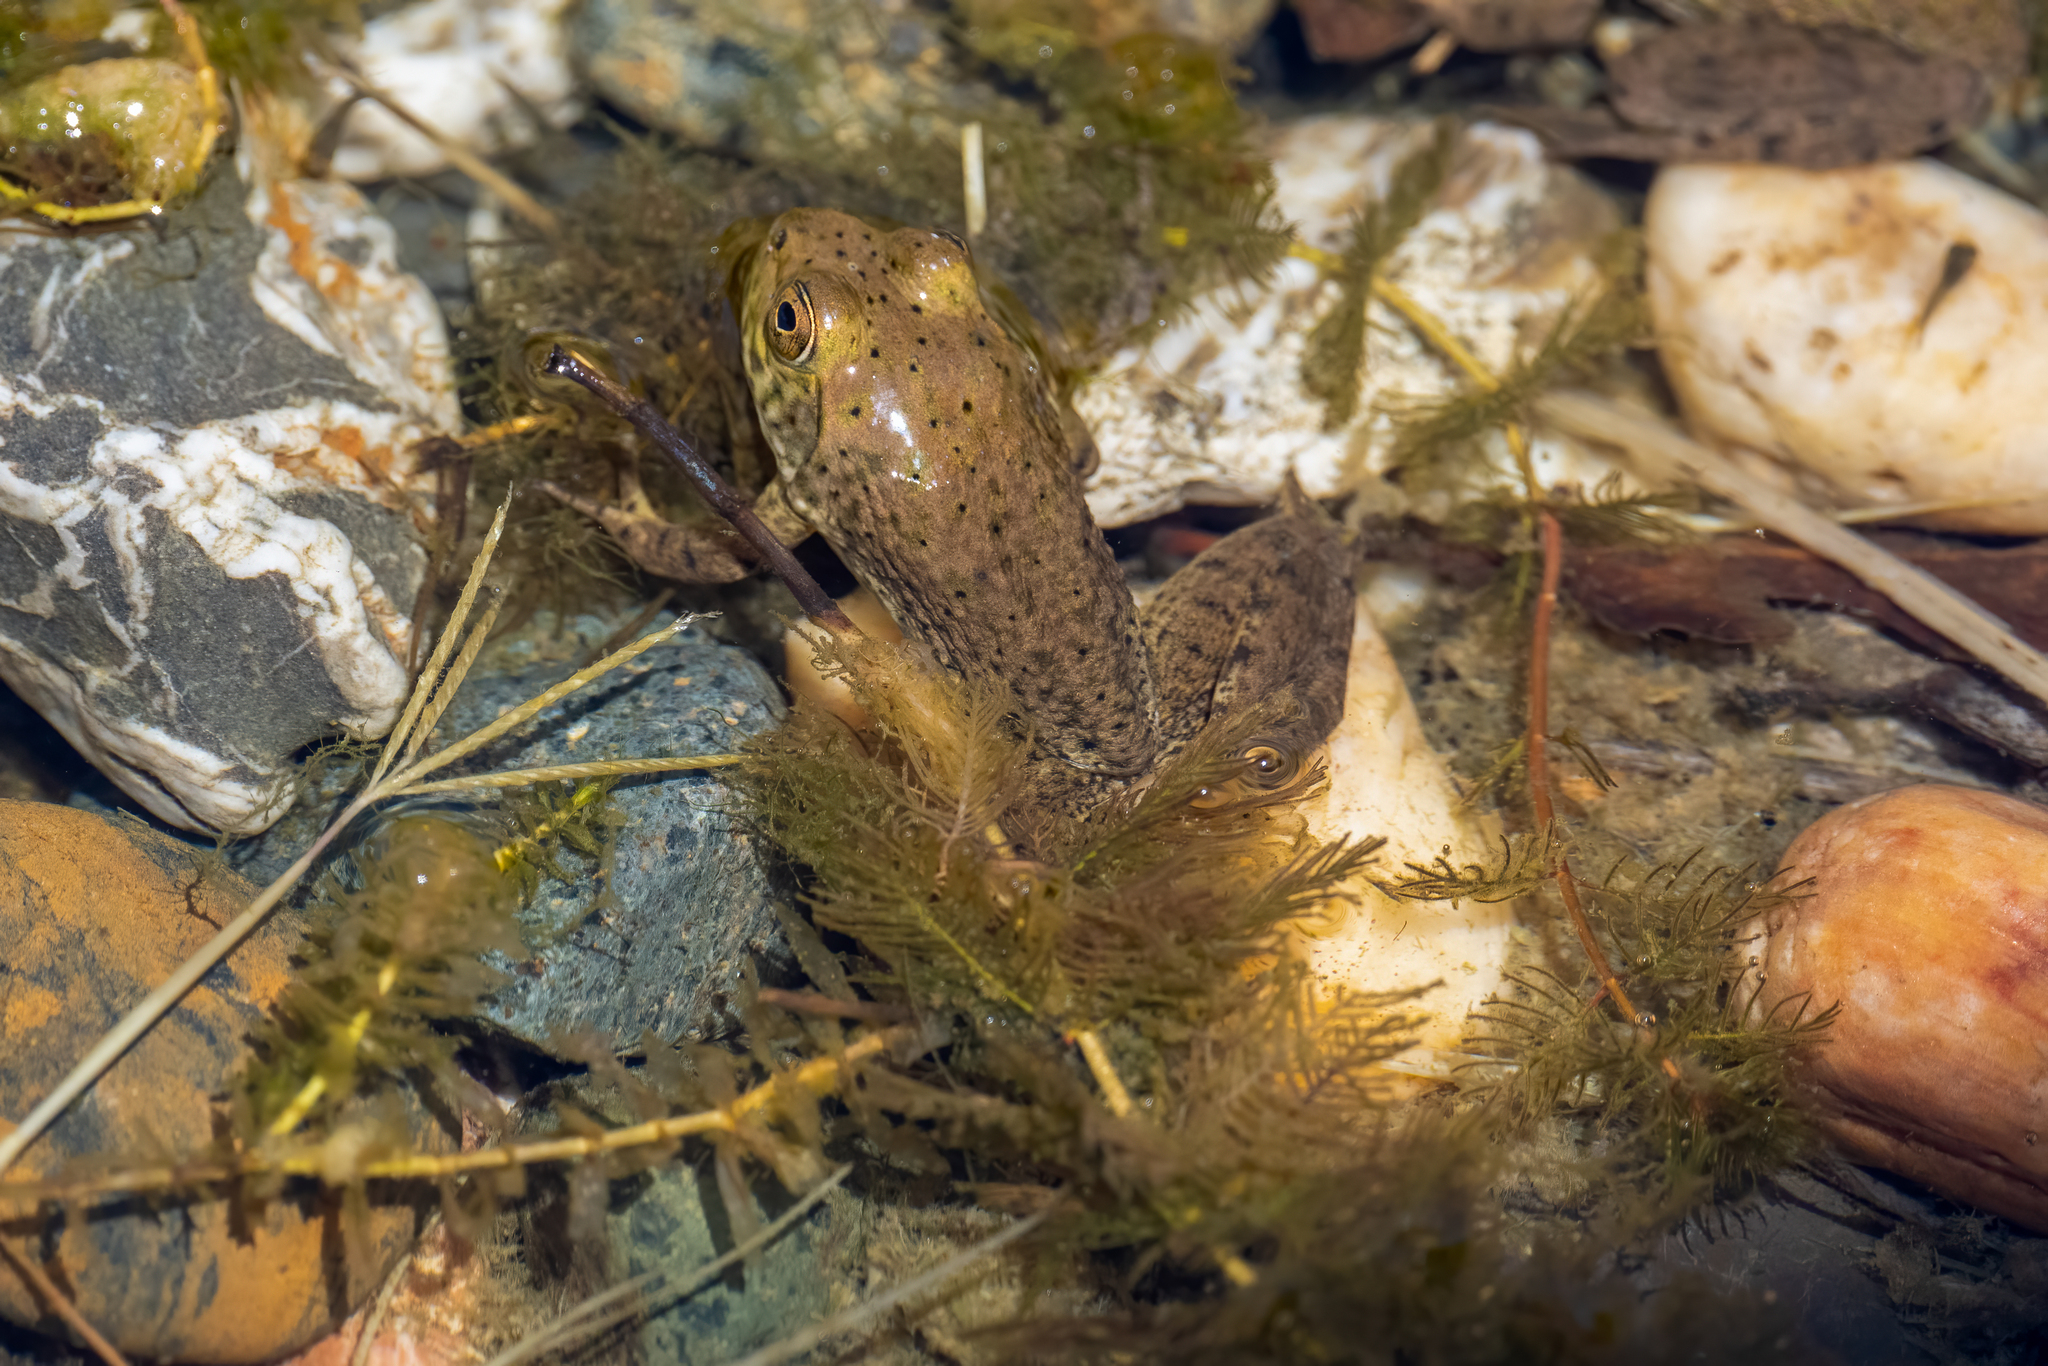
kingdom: Animalia
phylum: Chordata
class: Amphibia
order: Anura
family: Ranidae
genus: Lithobates
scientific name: Lithobates catesbeianus
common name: American bullfrog
